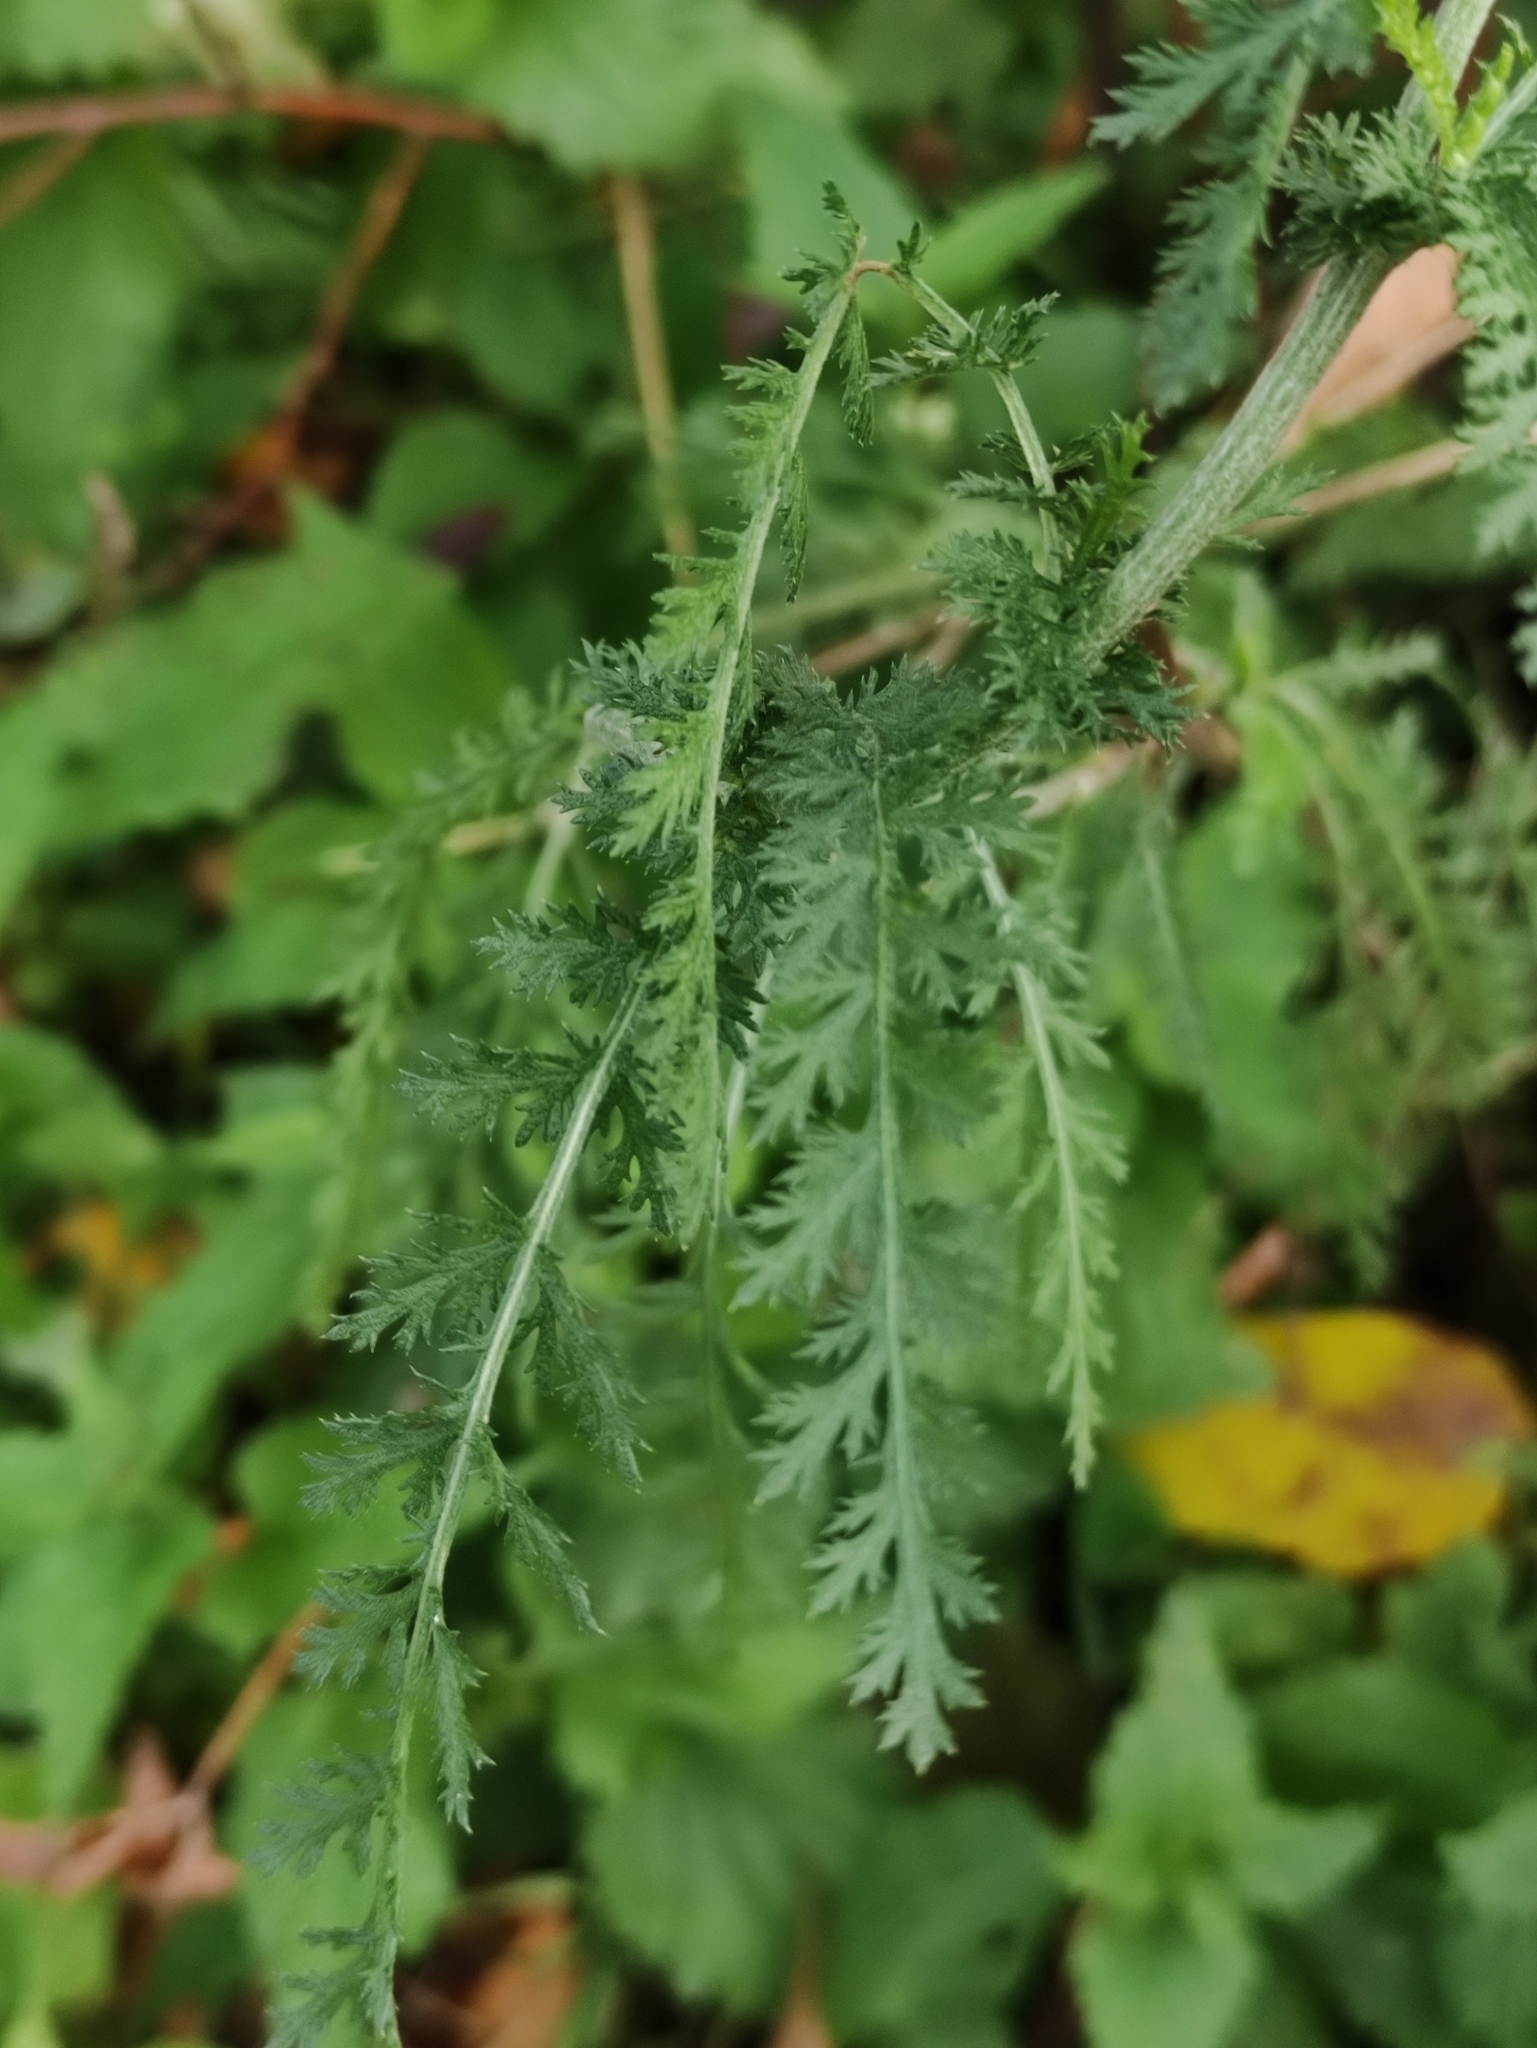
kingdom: Plantae
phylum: Tracheophyta
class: Magnoliopsida
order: Asterales
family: Asteraceae
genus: Achillea
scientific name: Achillea millefolium
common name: Yarrow
